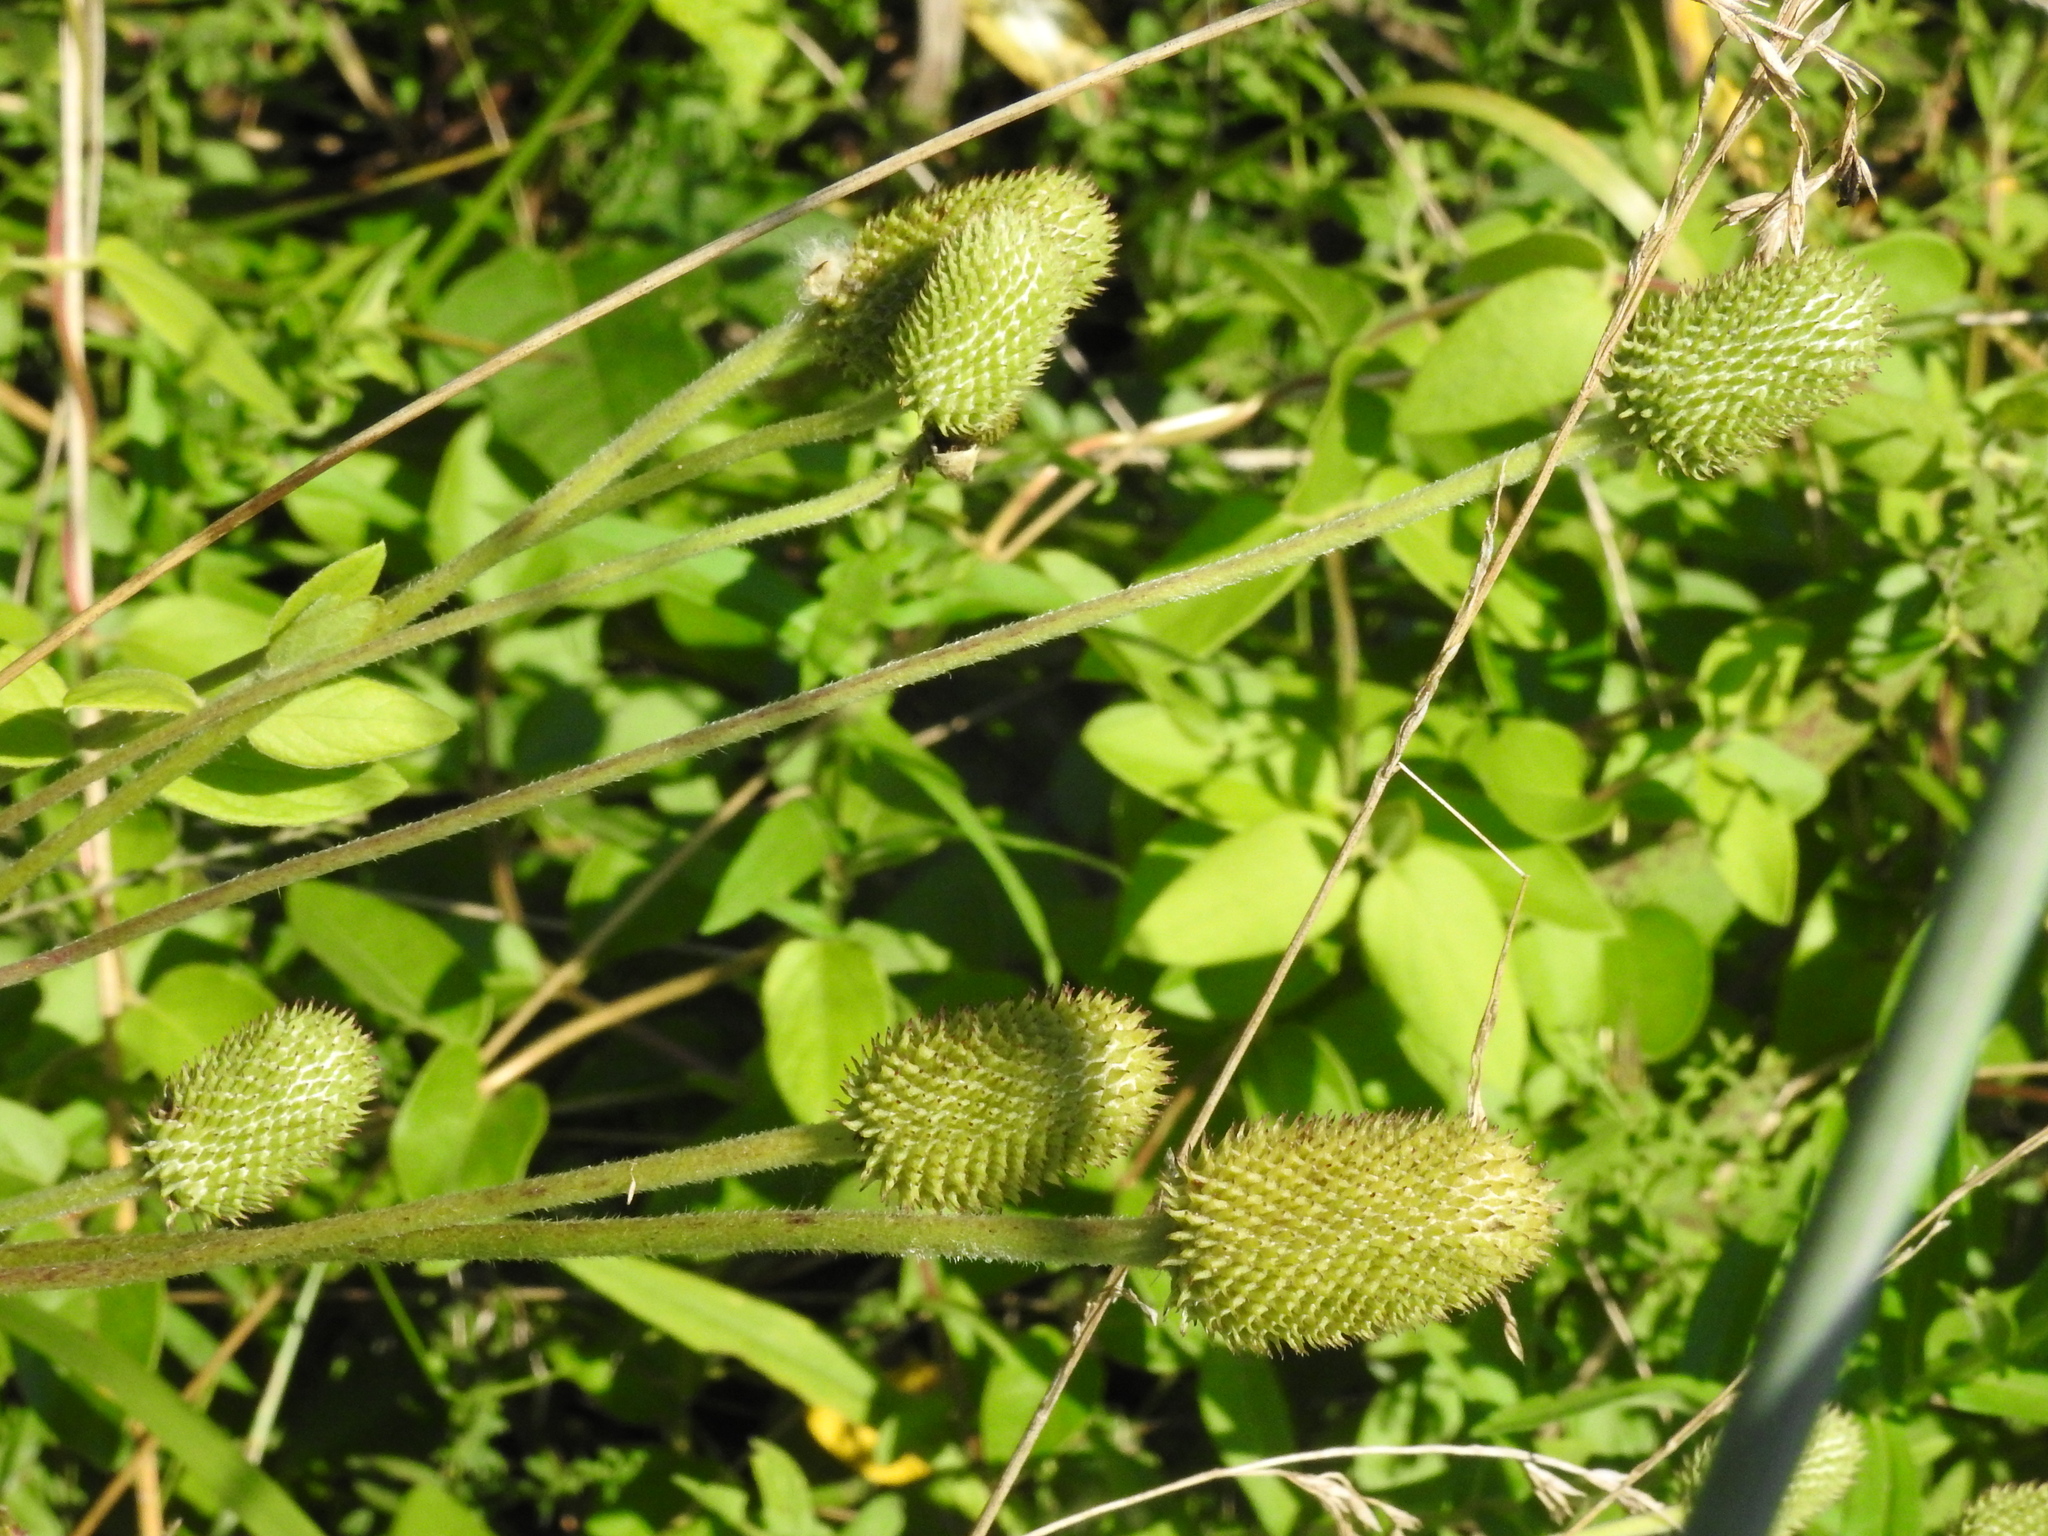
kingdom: Plantae
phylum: Tracheophyta
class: Magnoliopsida
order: Ranunculales
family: Ranunculaceae
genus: Anemone
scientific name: Anemone virginiana
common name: Tall anemone
